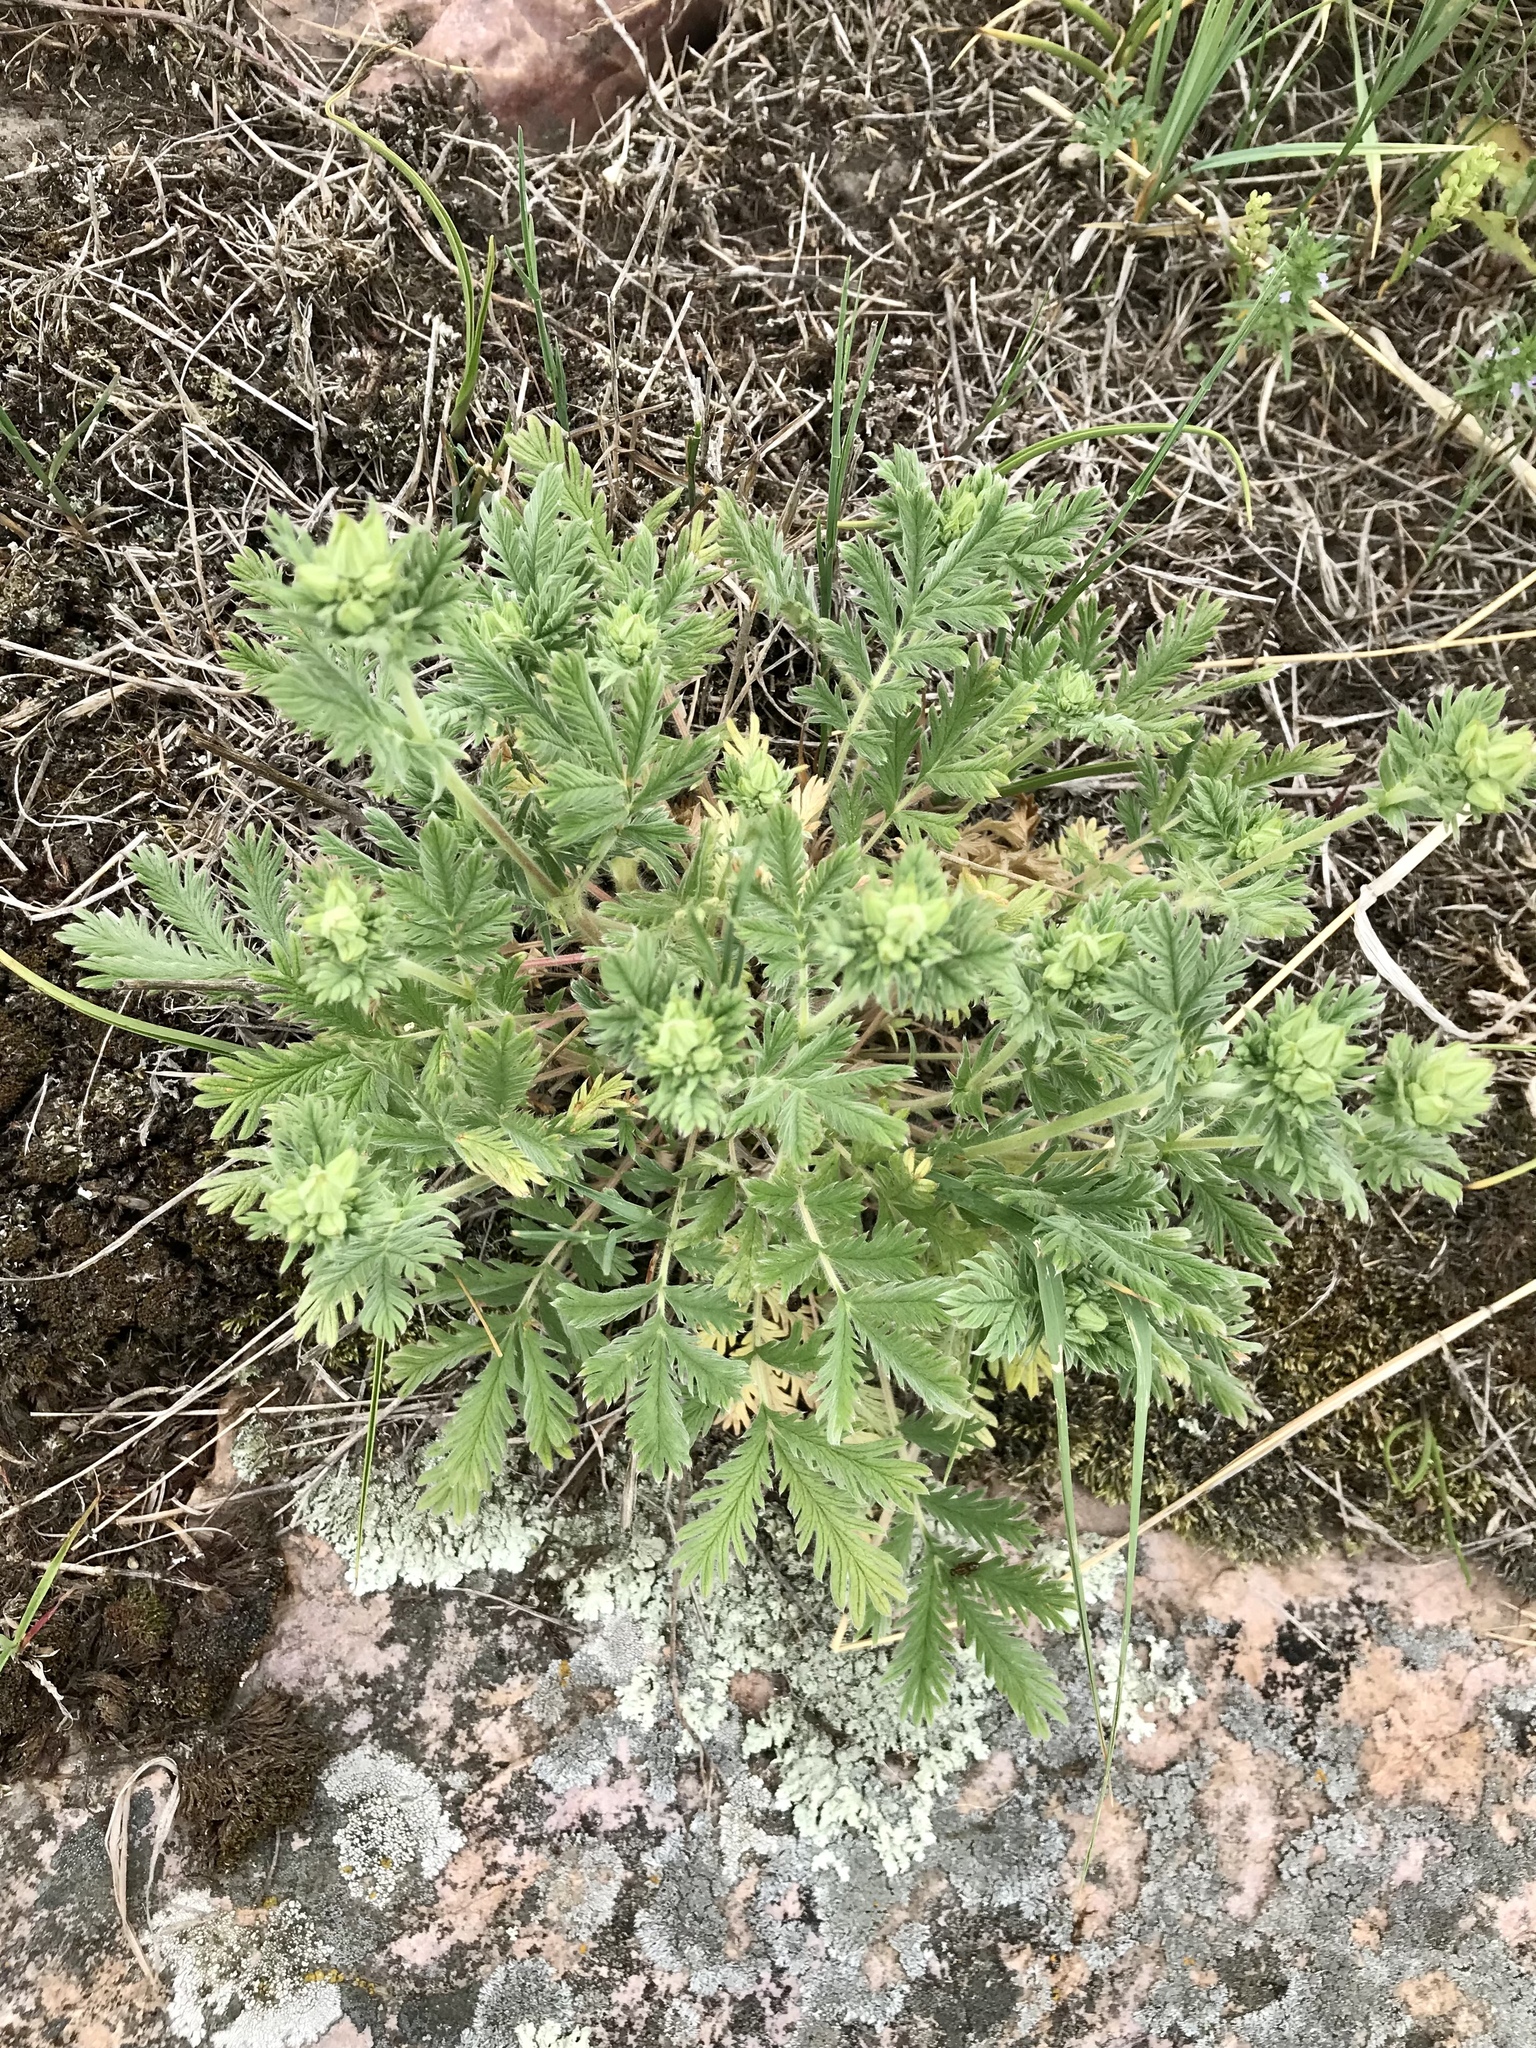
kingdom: Plantae
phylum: Tracheophyta
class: Magnoliopsida
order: Rosales
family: Rosaceae
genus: Potentilla
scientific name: Potentilla pensylvanica
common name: Pennsylvania cinquefoil
